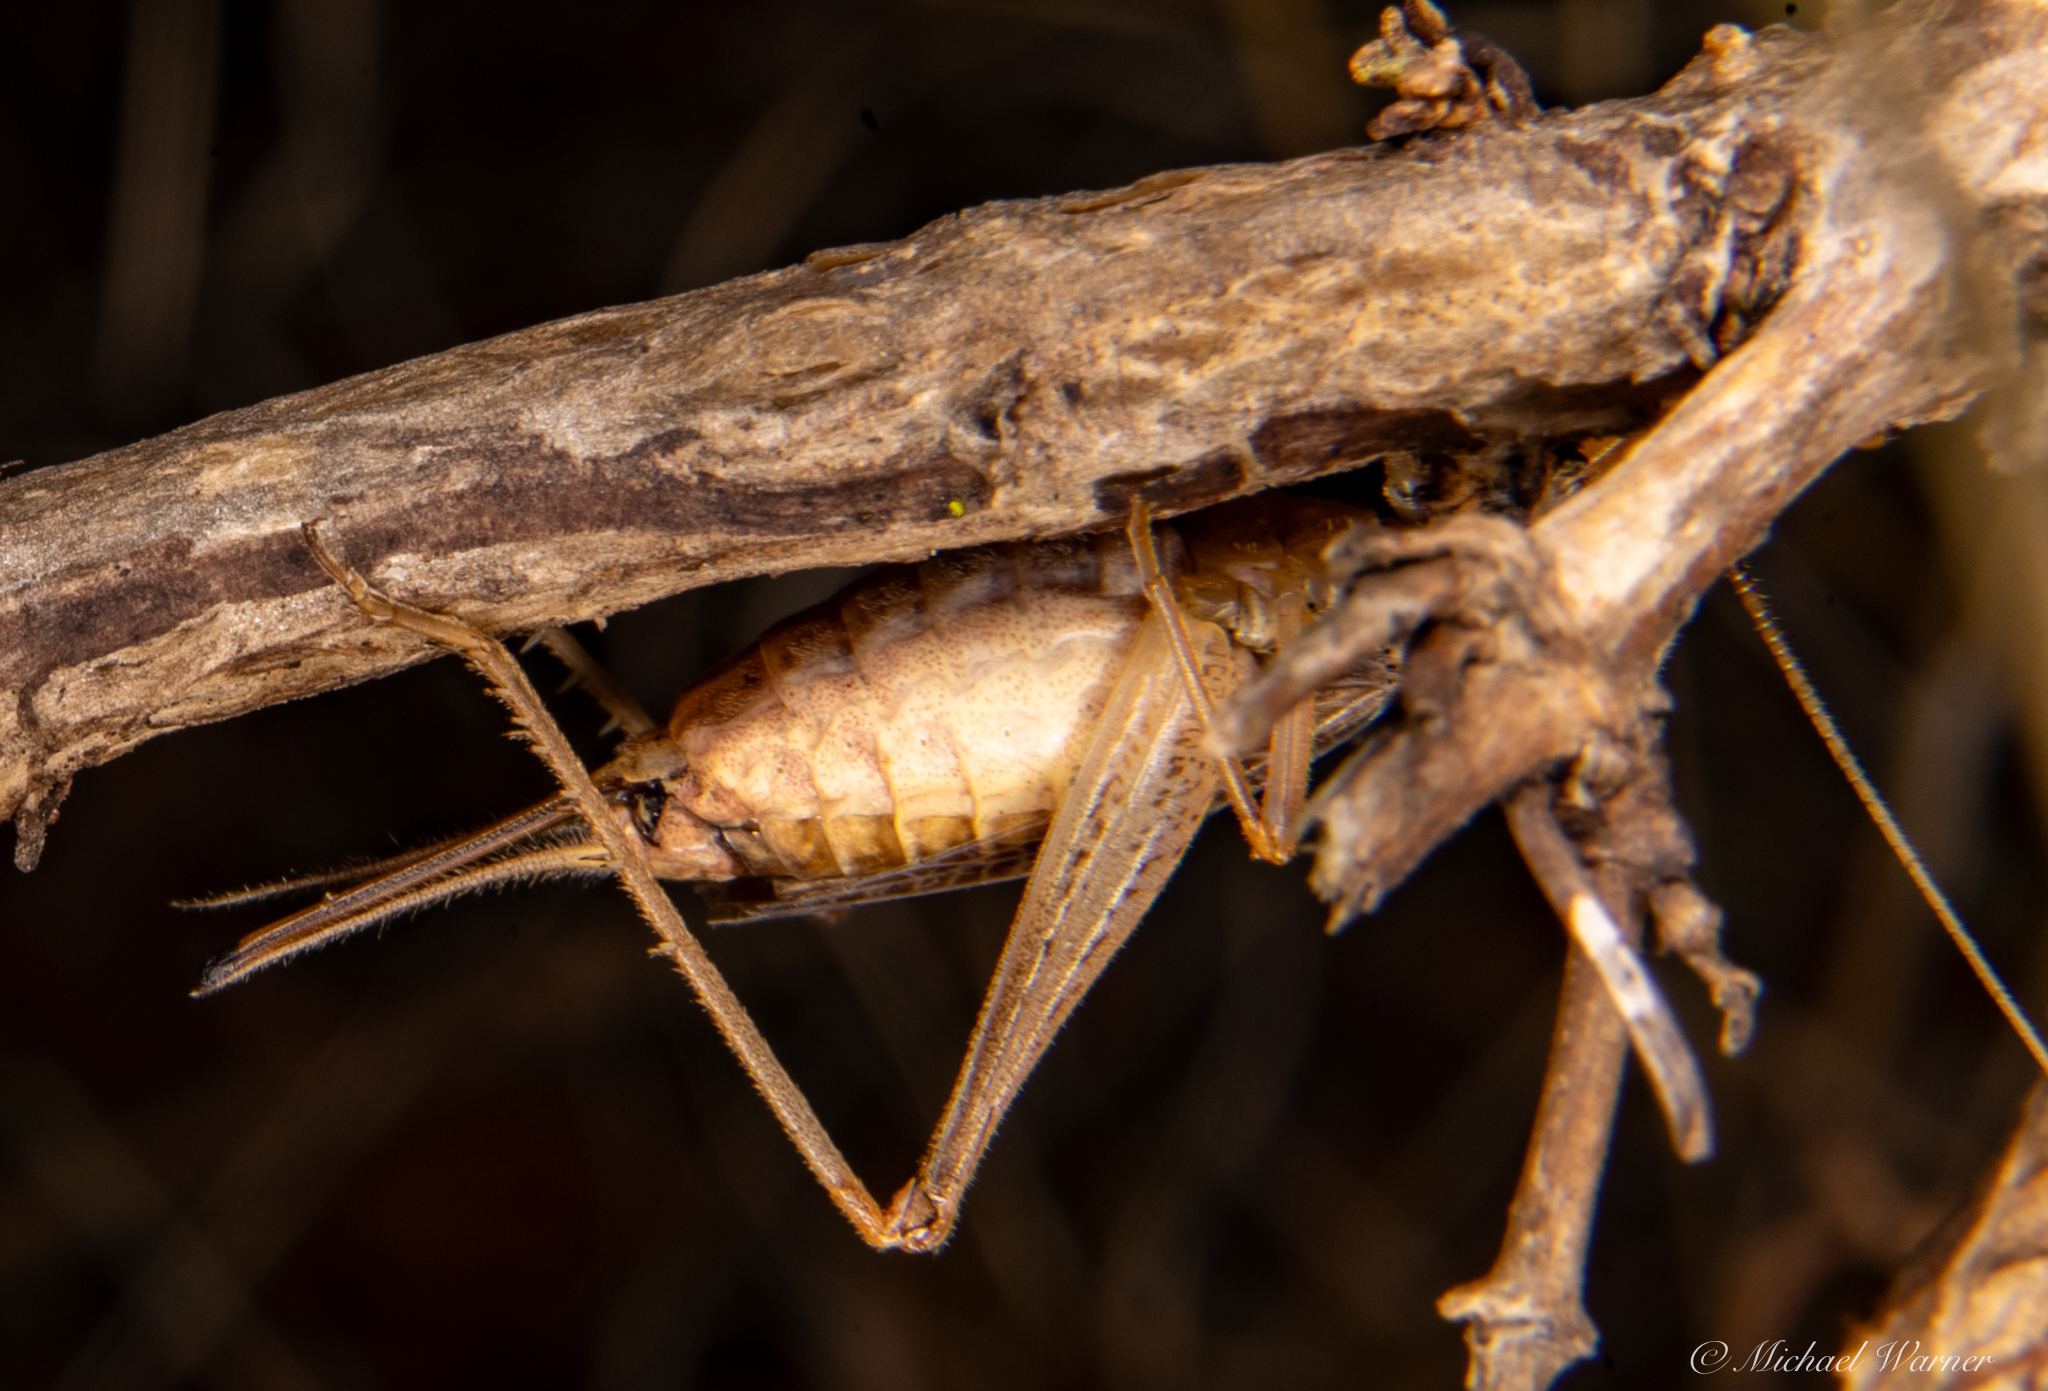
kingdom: Animalia
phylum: Arthropoda
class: Insecta
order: Orthoptera
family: Gryllidae
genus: Oecanthus
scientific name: Oecanthus californicus
